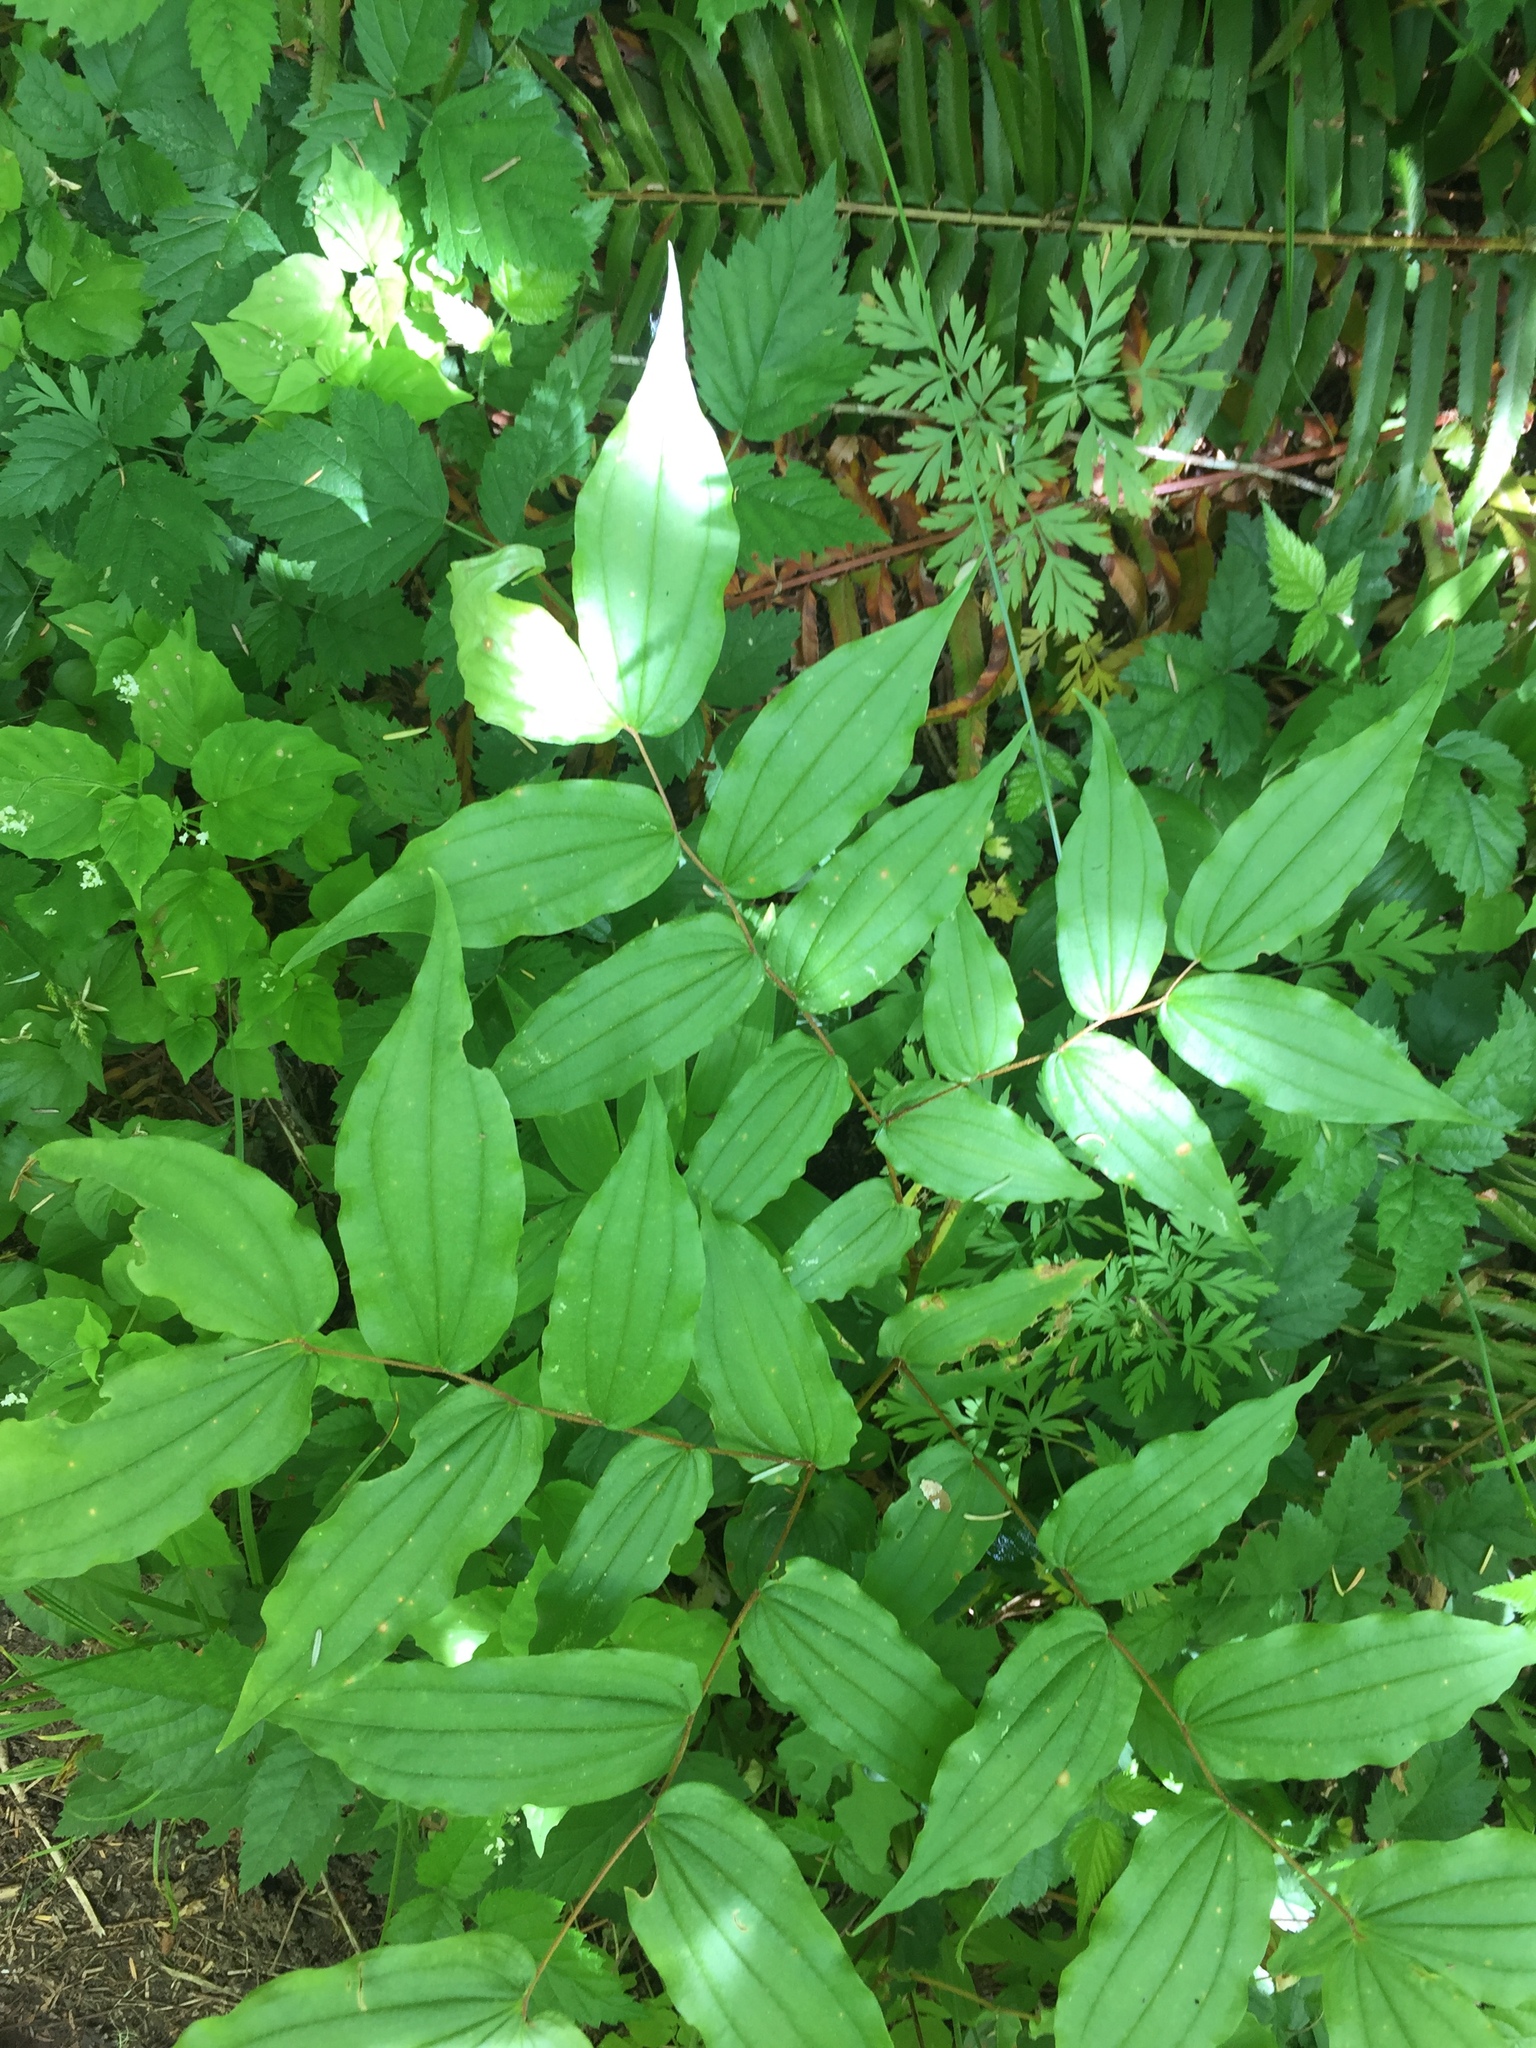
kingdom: Plantae
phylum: Tracheophyta
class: Liliopsida
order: Liliales
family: Liliaceae
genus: Prosartes
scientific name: Prosartes hookeri
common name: Fairy-bells
